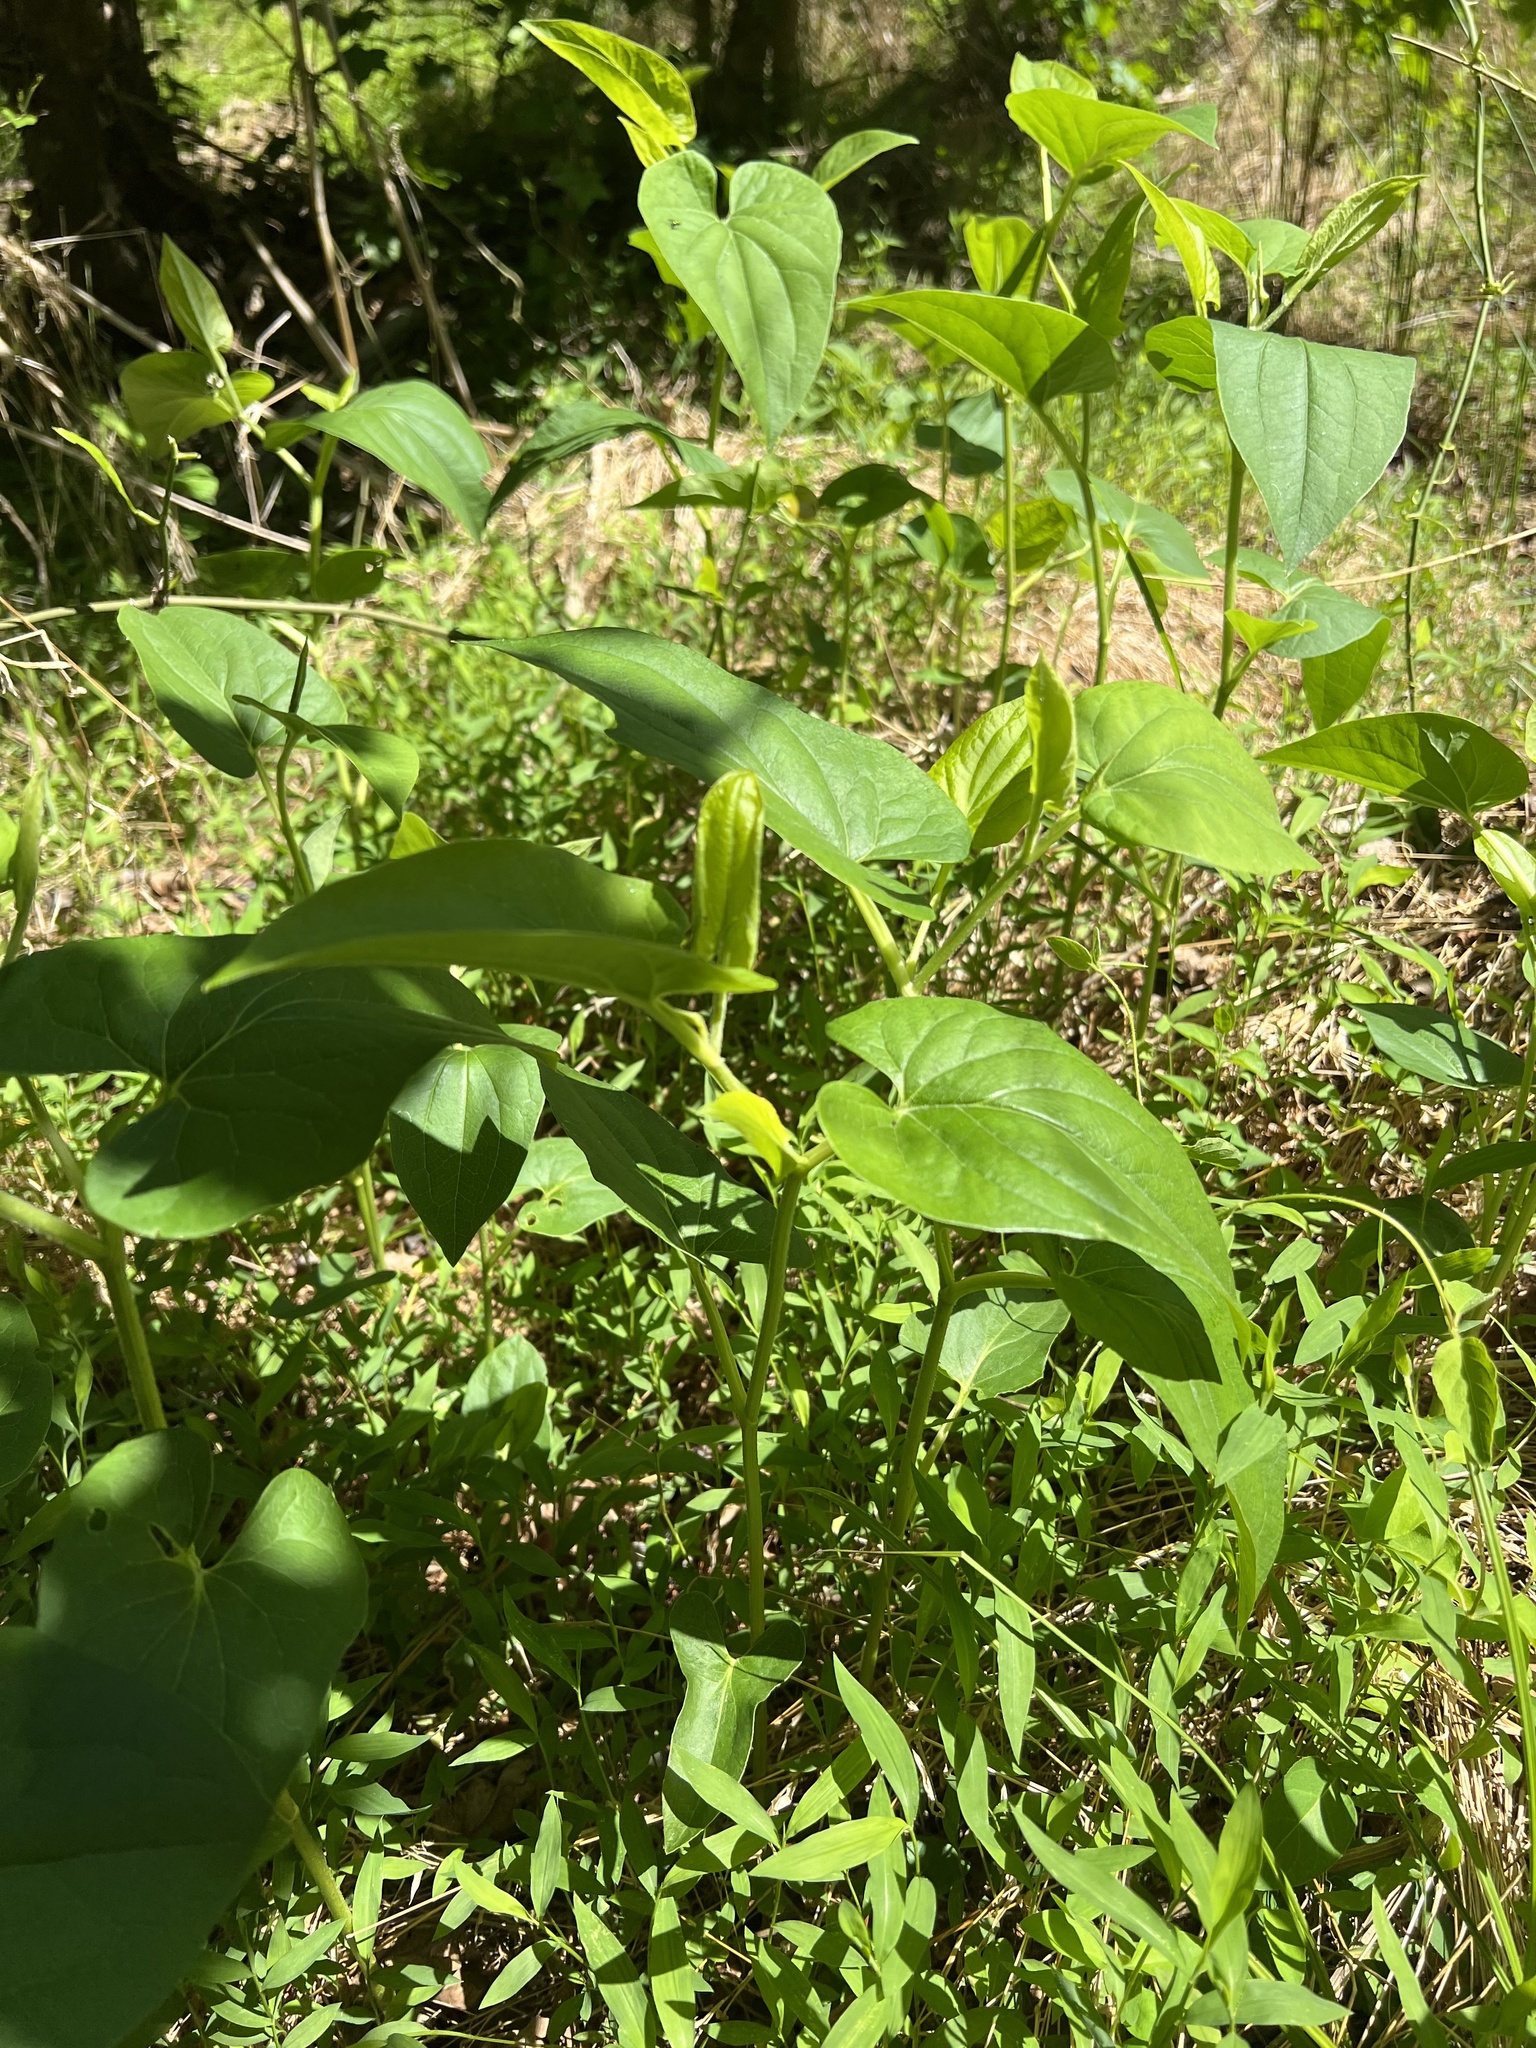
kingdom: Plantae
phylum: Tracheophyta
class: Magnoliopsida
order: Piperales
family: Saururaceae
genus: Saururus
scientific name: Saururus cernuus
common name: Lizard's-tail
